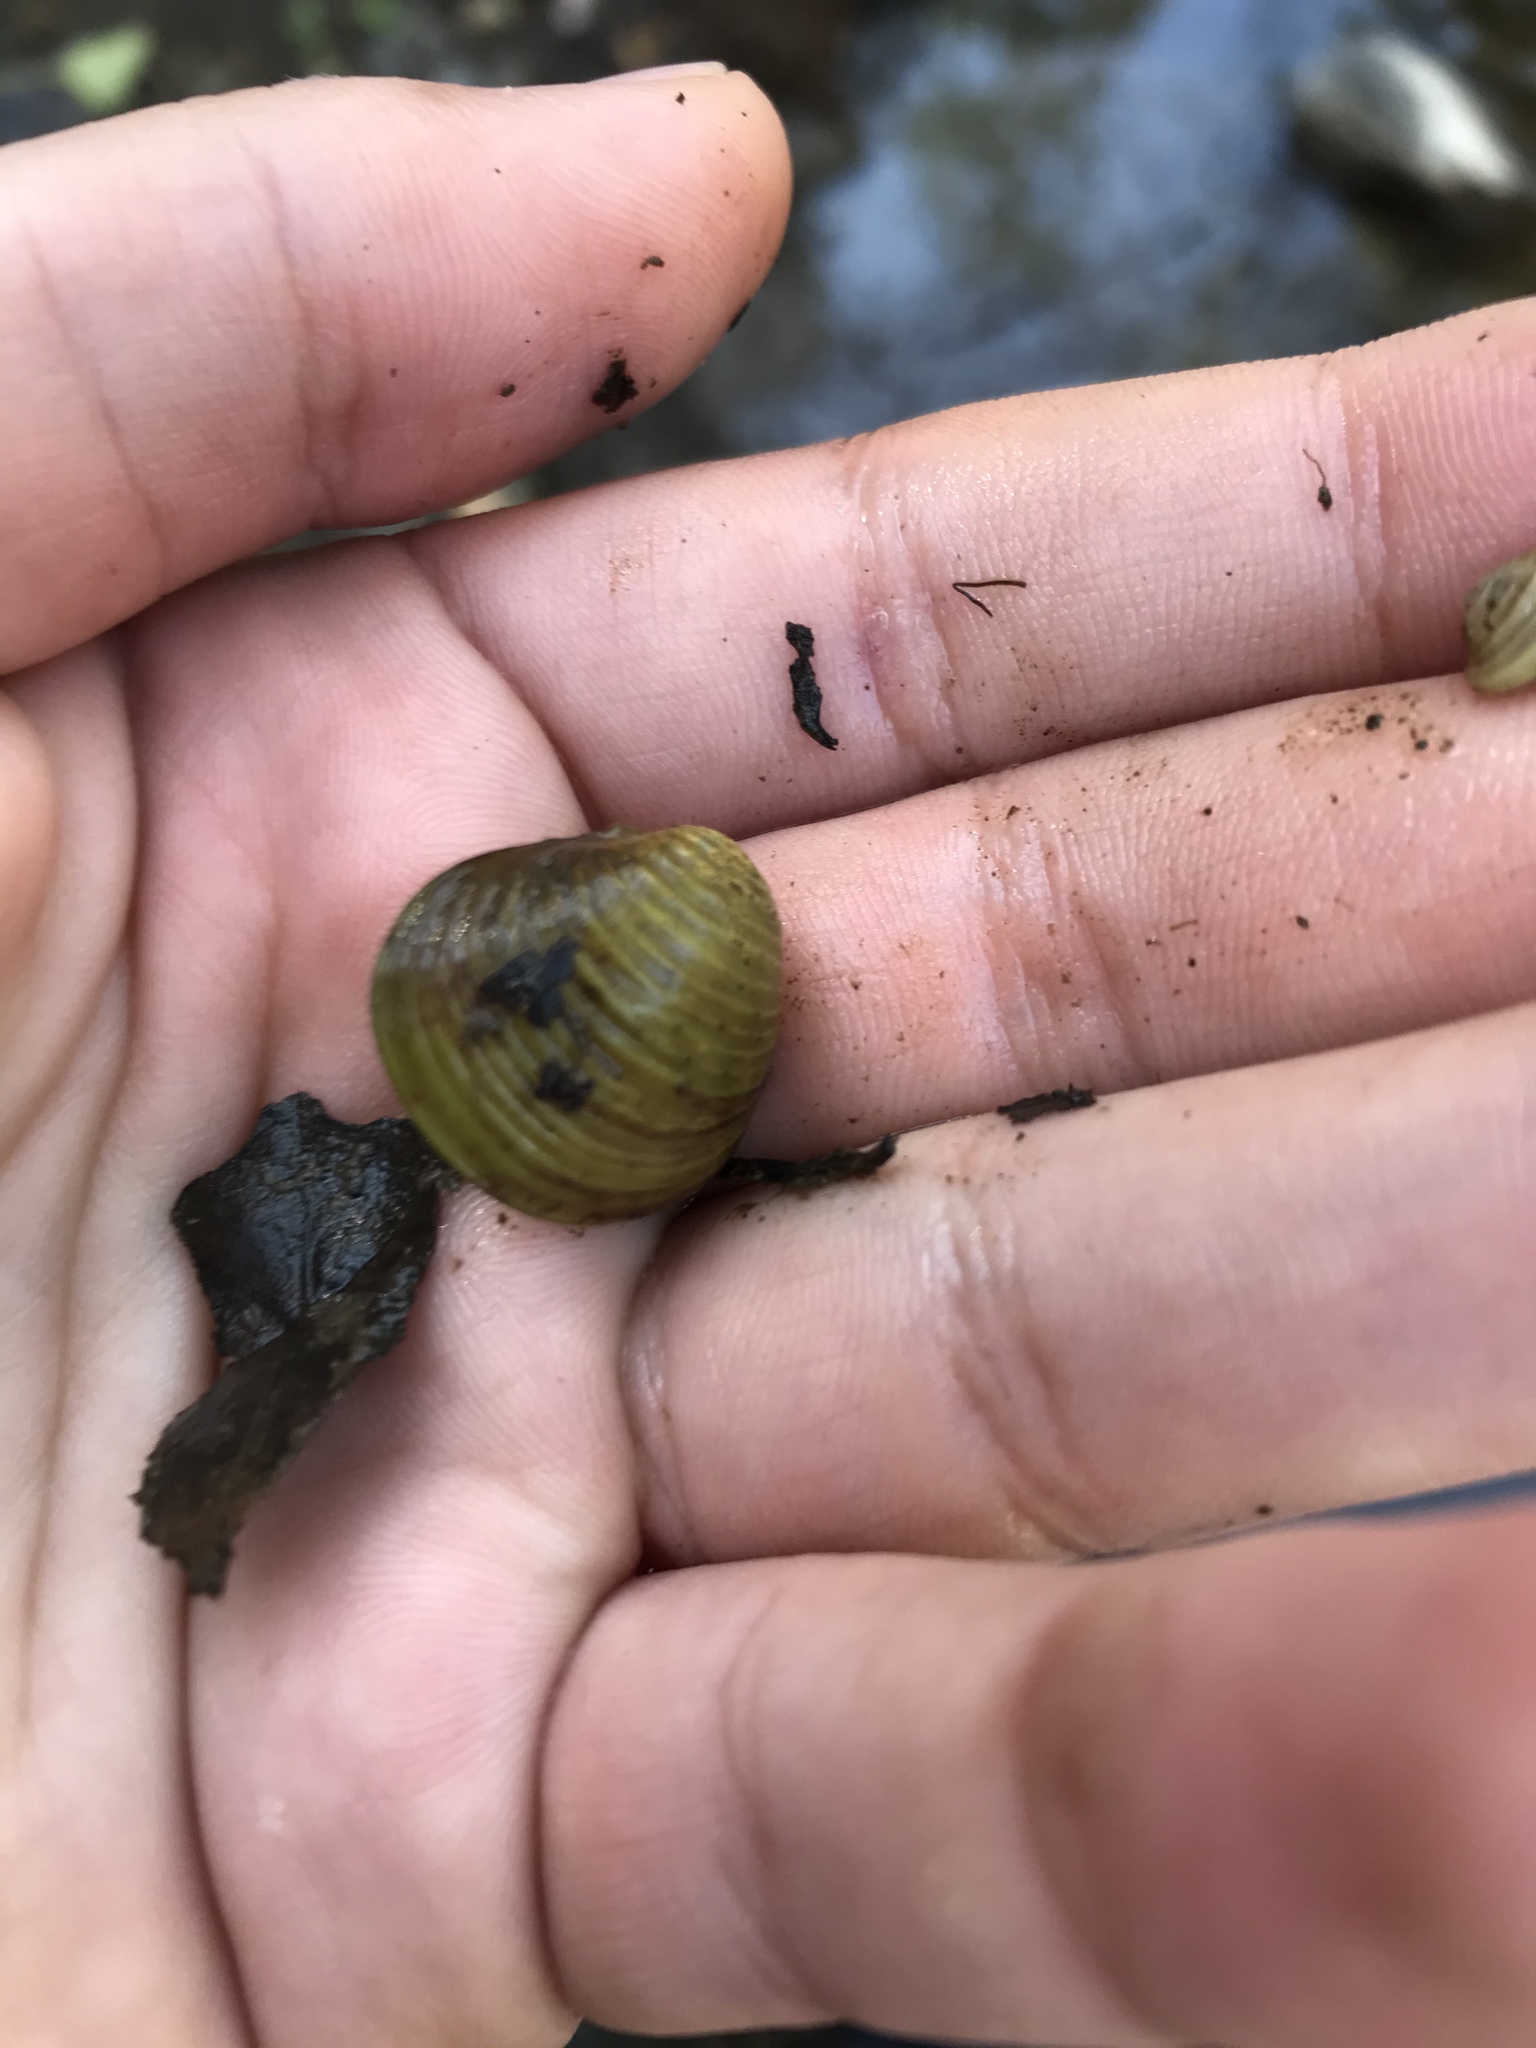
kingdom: Animalia
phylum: Mollusca
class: Bivalvia
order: Venerida
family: Cyrenidae
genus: Corbicula
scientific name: Corbicula fluminea
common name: Asian clam
